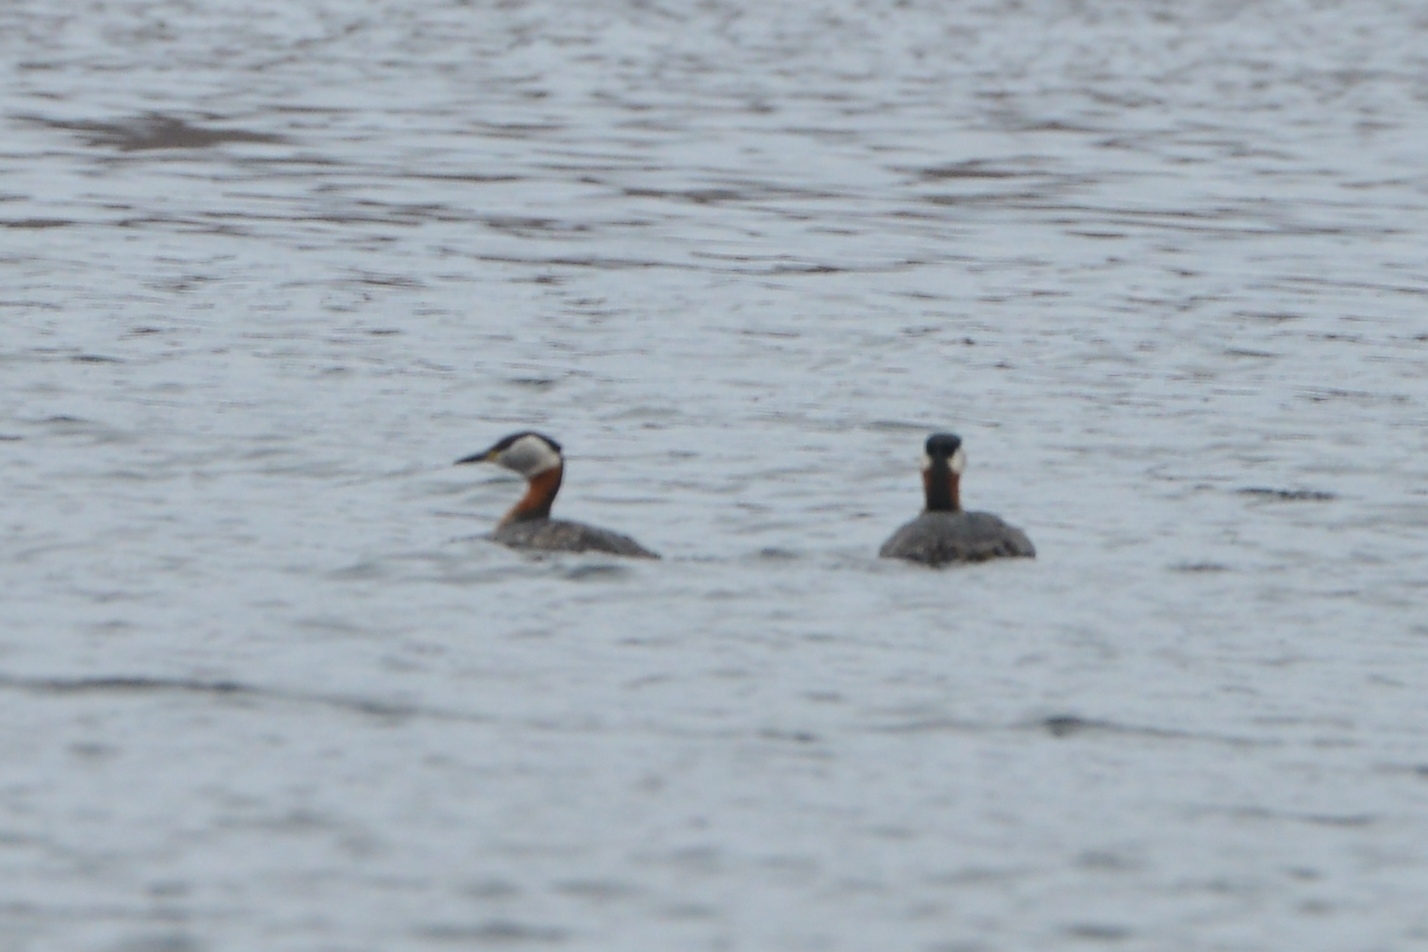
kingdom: Animalia
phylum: Chordata
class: Aves
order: Podicipediformes
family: Podicipedidae
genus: Podiceps
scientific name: Podiceps grisegena
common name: Red-necked grebe
